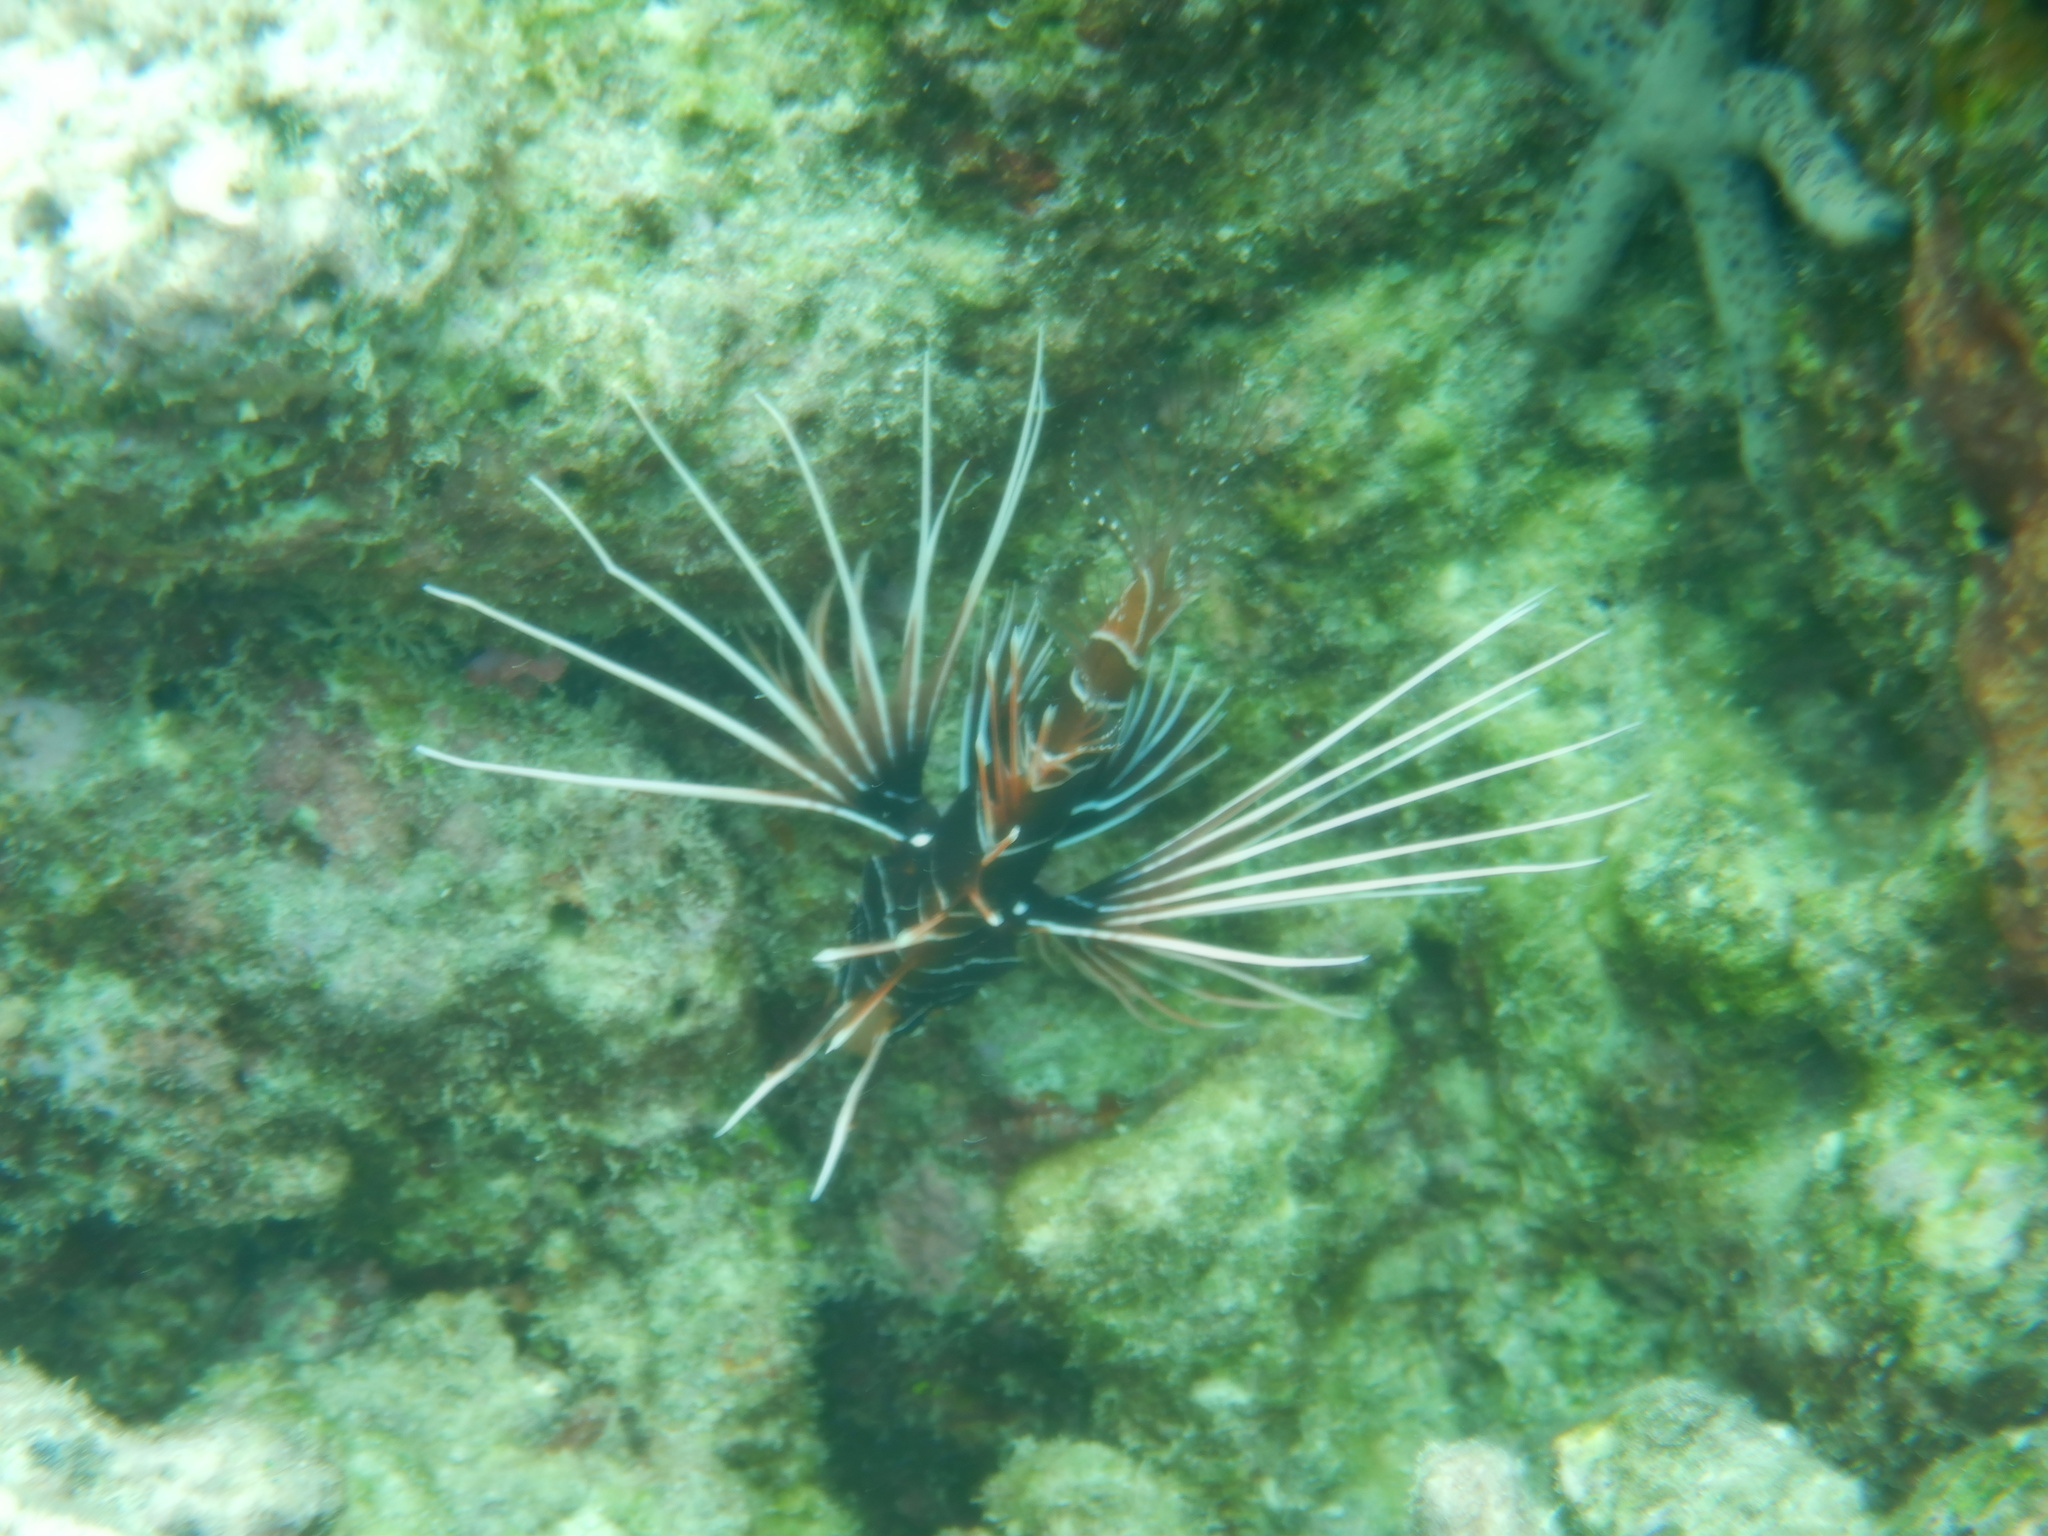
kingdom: Animalia
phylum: Chordata
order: Scorpaeniformes
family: Scorpaenidae
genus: Pterois
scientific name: Pterois radiata
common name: Radial firefish
